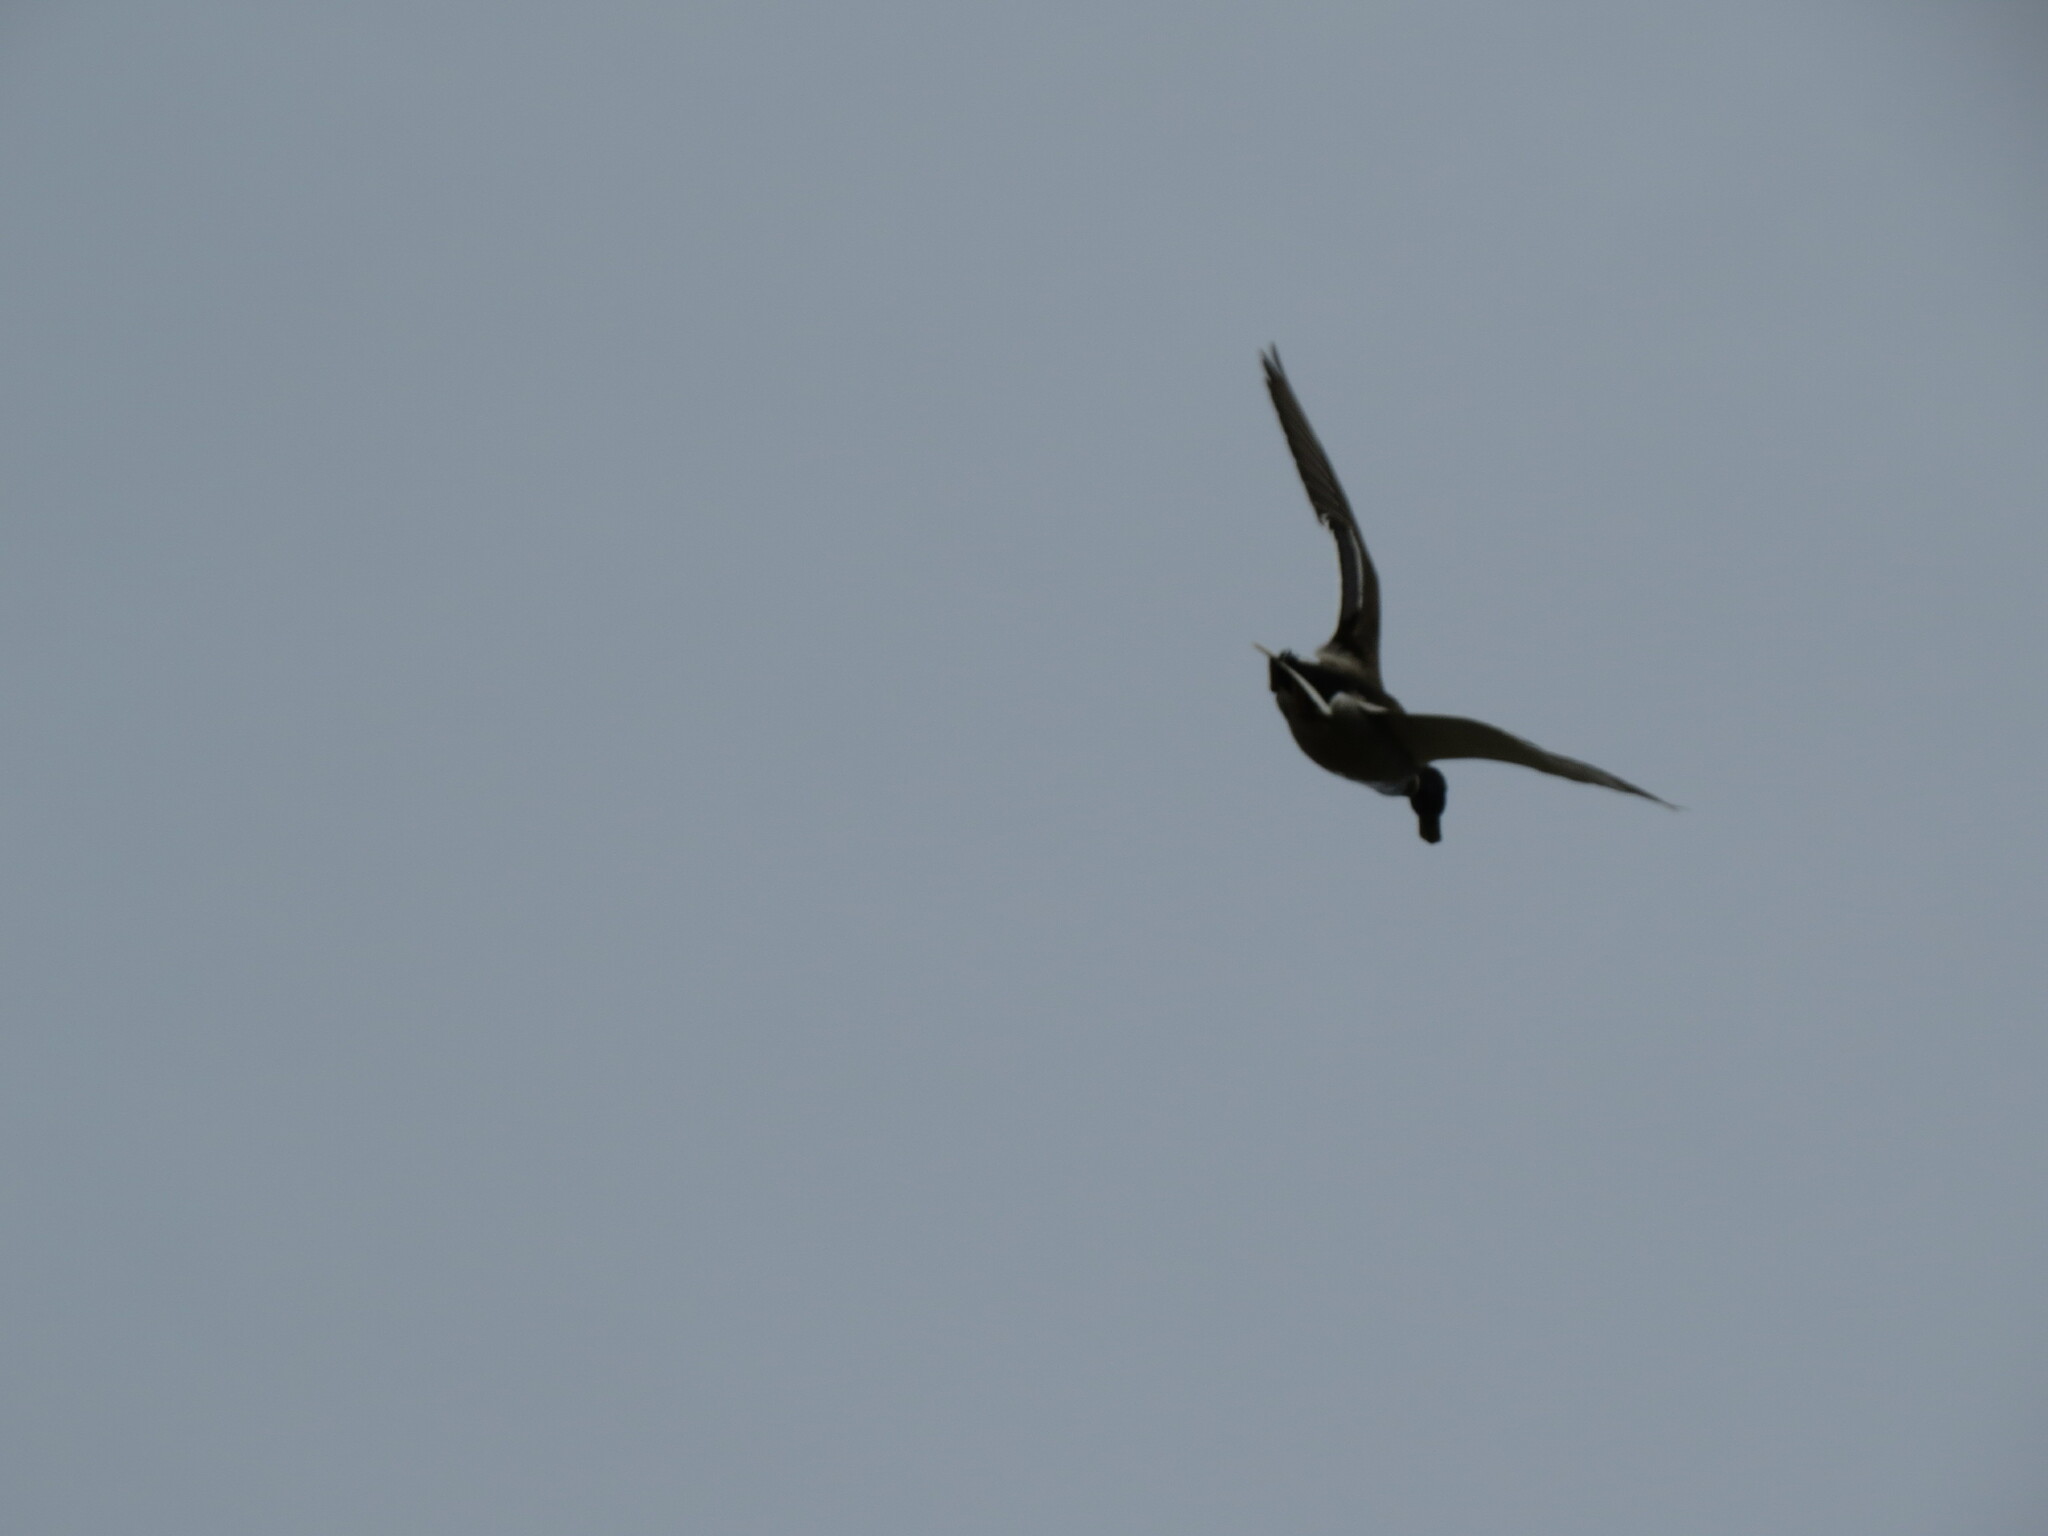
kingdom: Animalia
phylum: Chordata
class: Aves
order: Anseriformes
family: Anatidae
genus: Anas
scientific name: Anas platyrhynchos
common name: Mallard
